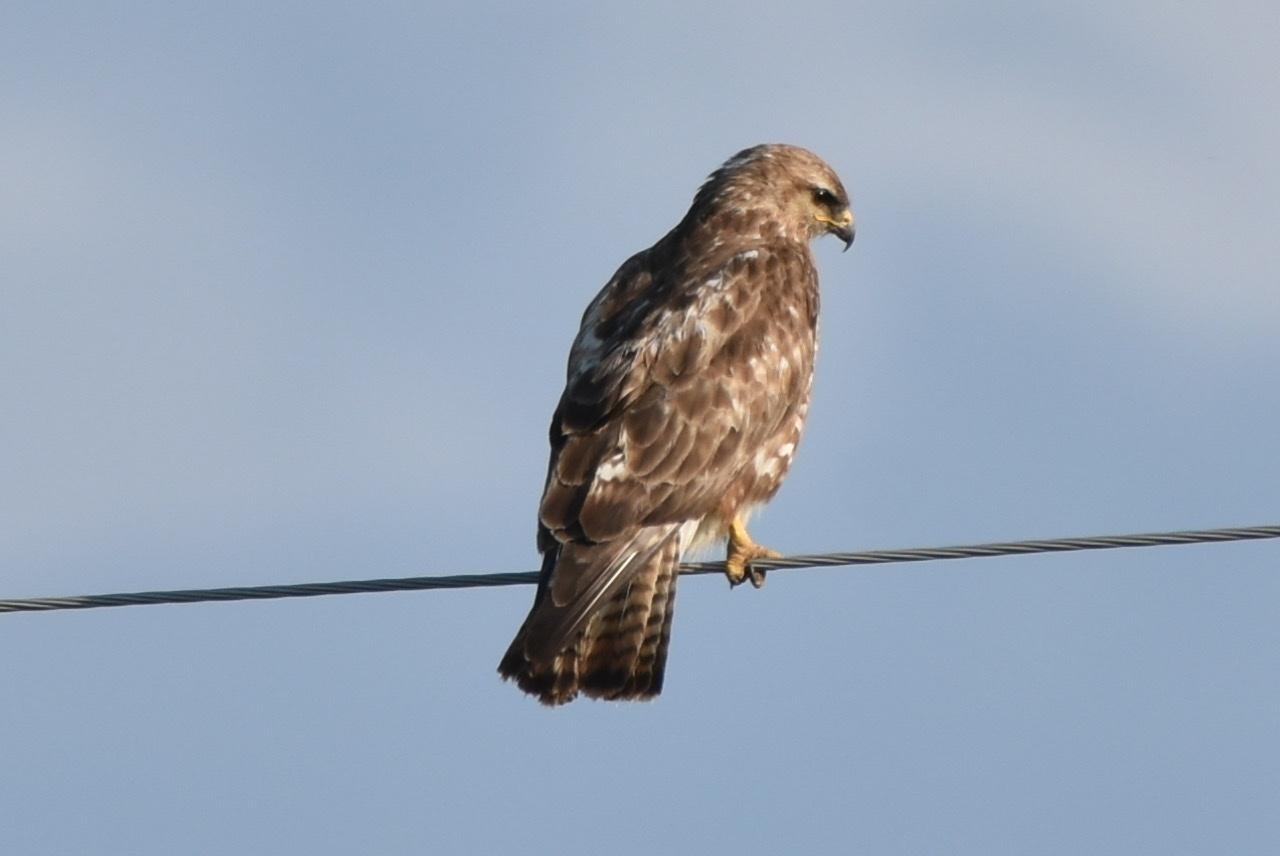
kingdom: Animalia
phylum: Chordata
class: Aves
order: Accipitriformes
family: Accipitridae
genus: Buteo
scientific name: Buteo buteo
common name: Common buzzard
